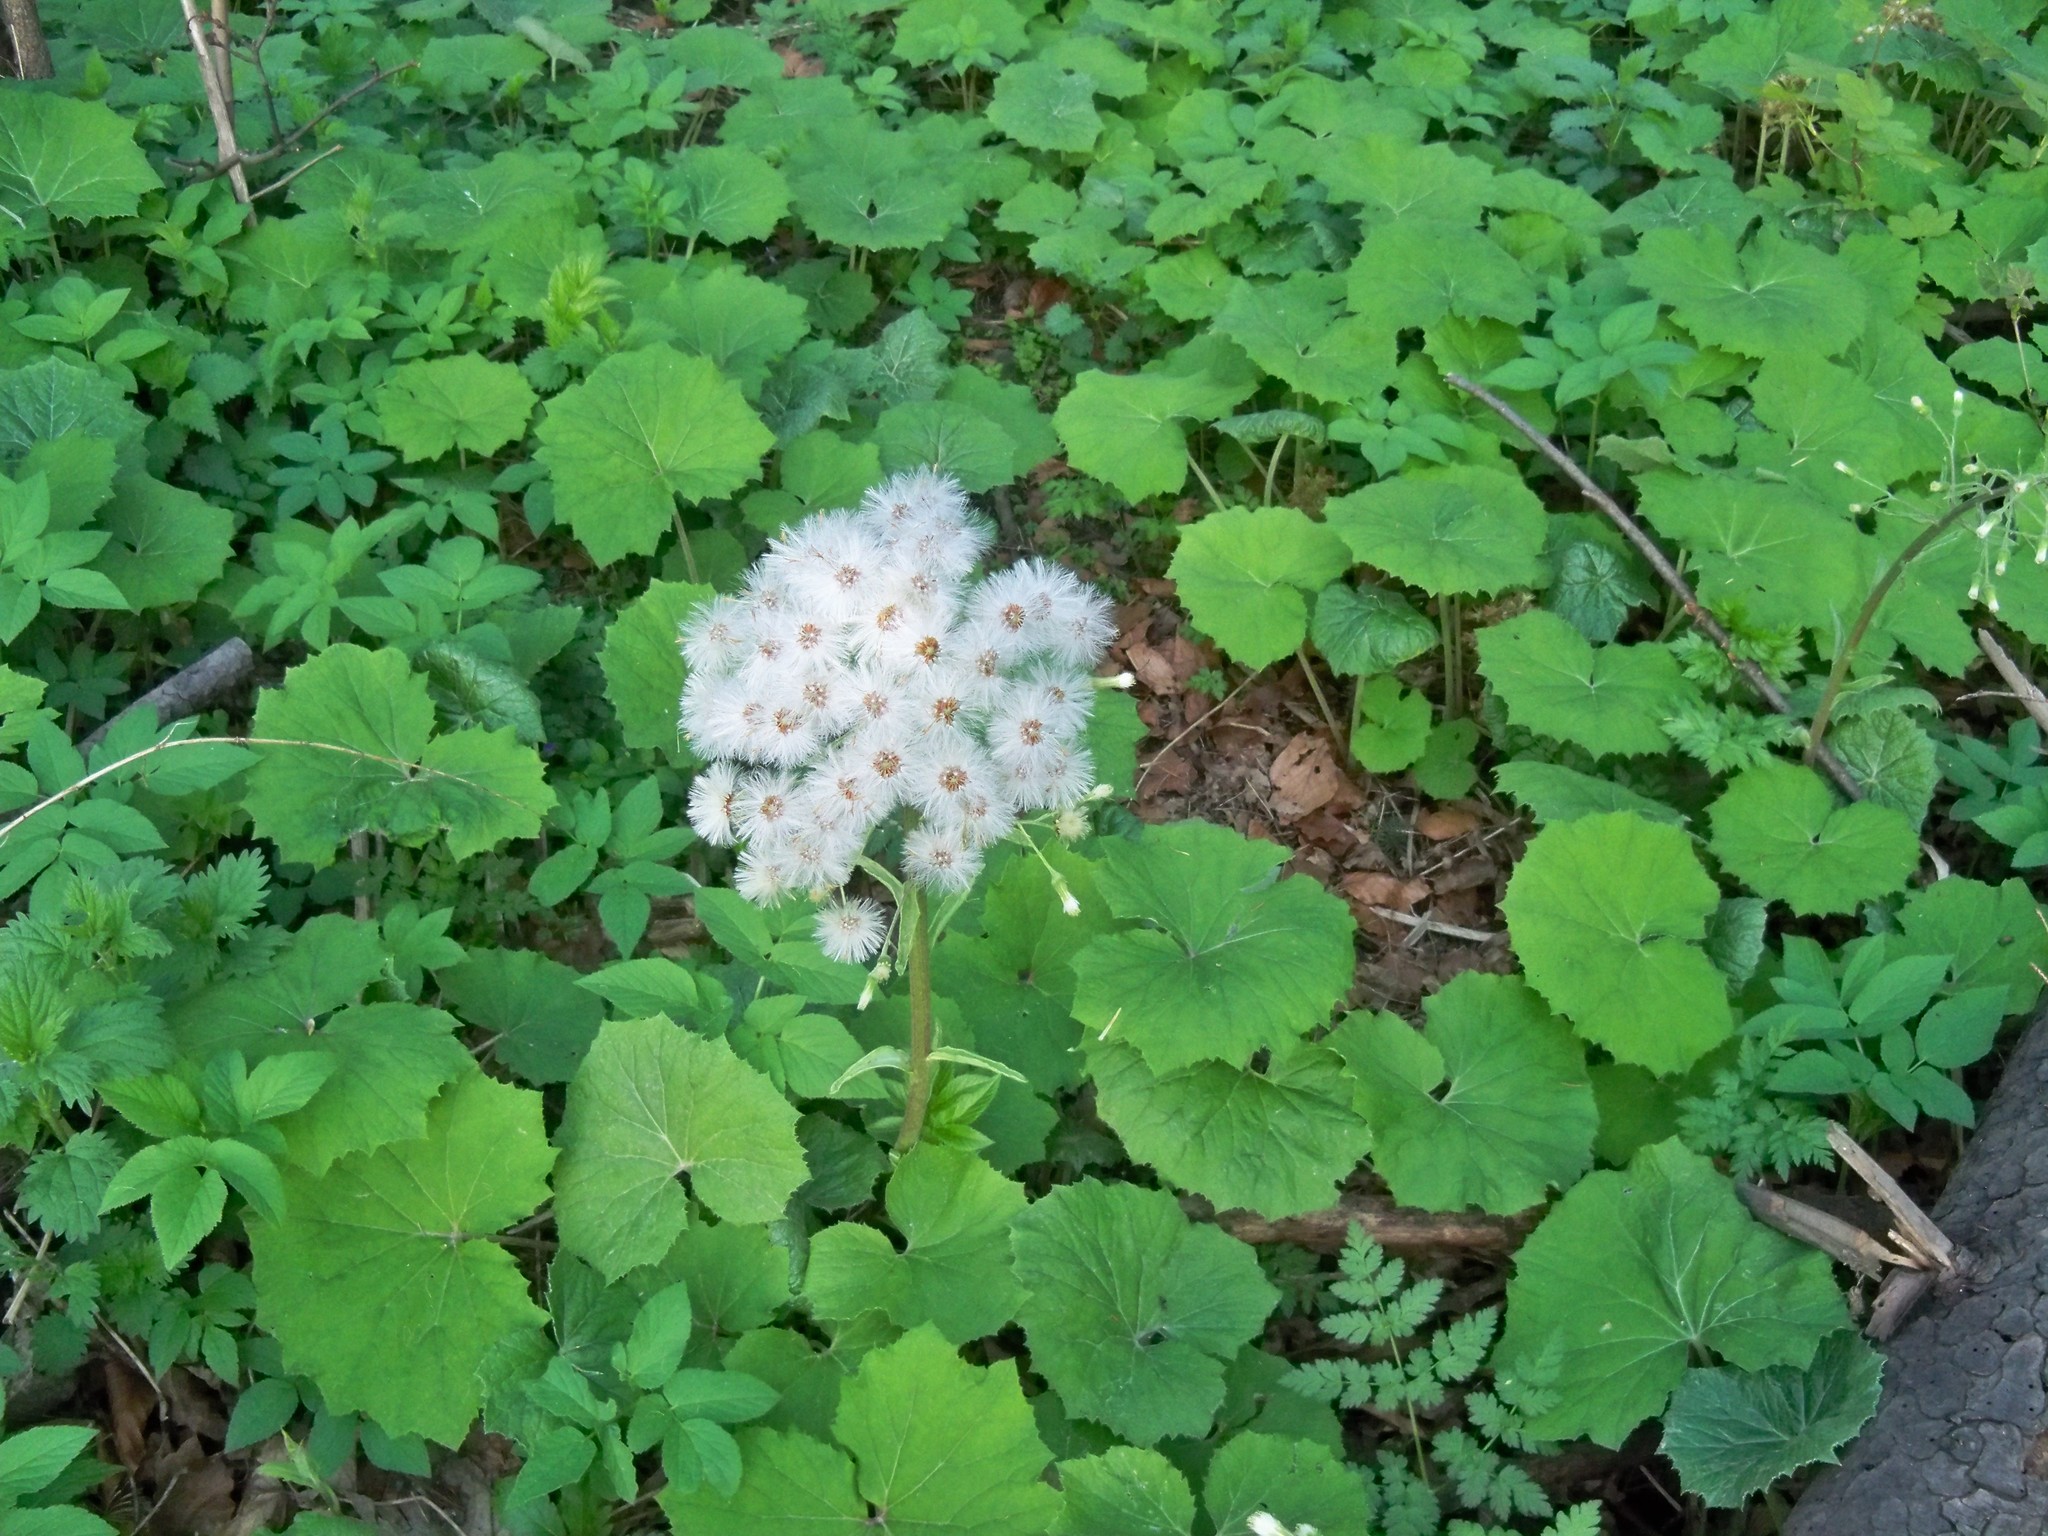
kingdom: Plantae
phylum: Tracheophyta
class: Magnoliopsida
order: Asterales
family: Asteraceae
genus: Petasites
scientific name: Petasites albus
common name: White butterbur
